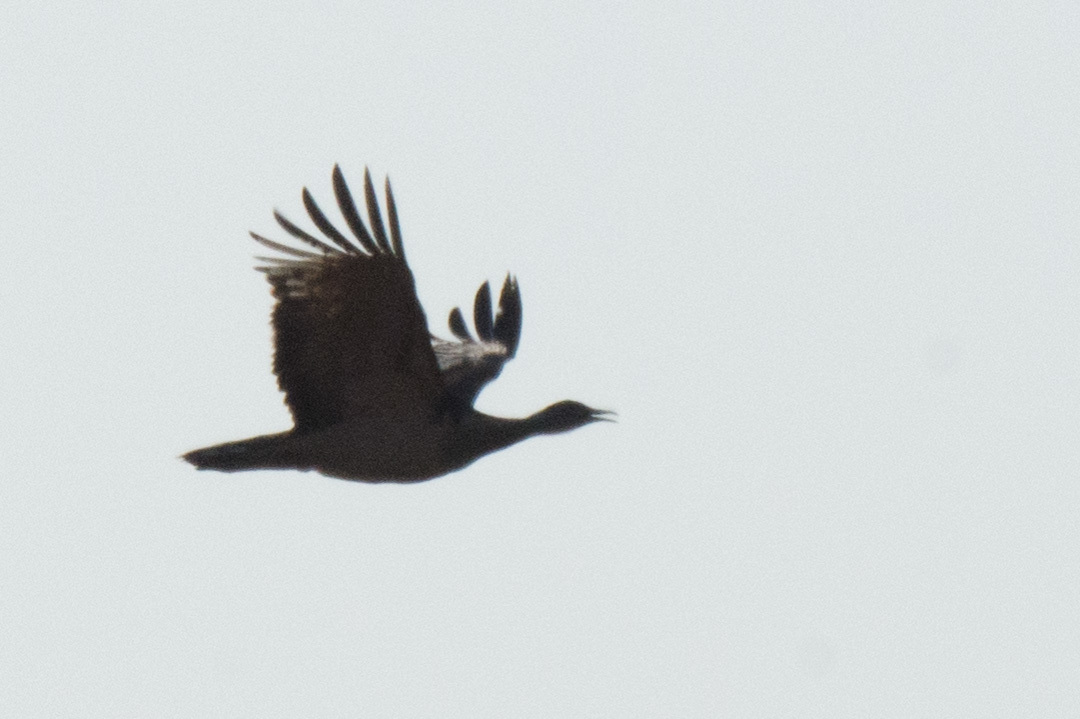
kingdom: Animalia
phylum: Chordata
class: Aves
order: Otidiformes
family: Otididae
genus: Neotis
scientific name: Neotis denhami
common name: Denham's bustard
